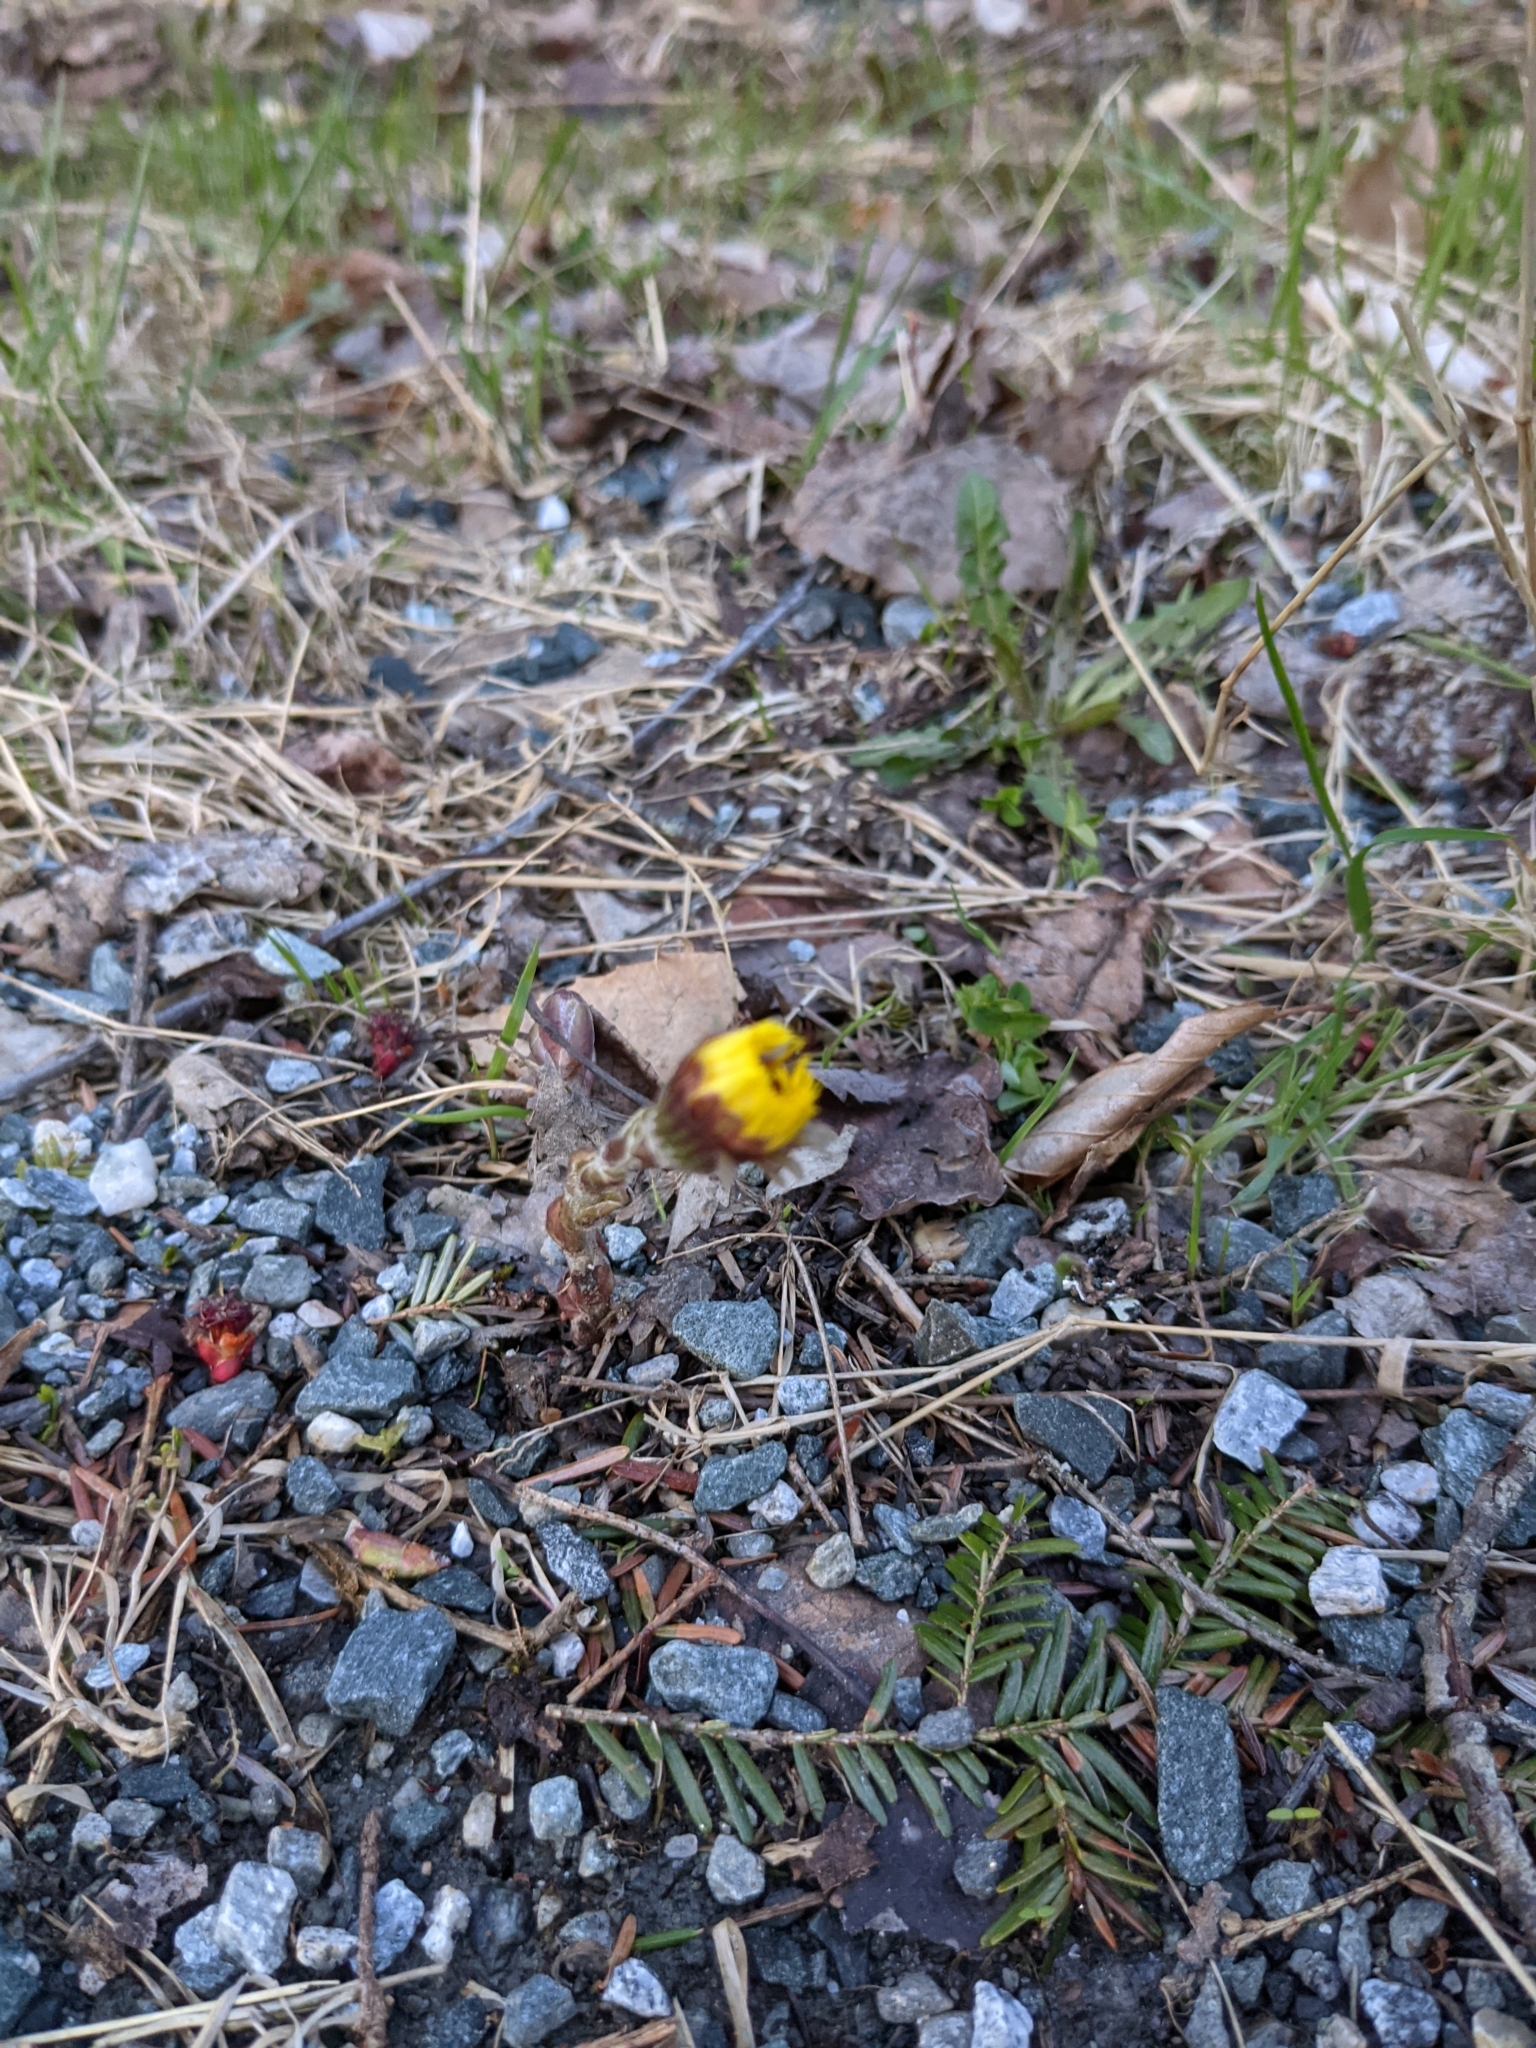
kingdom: Plantae
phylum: Tracheophyta
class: Magnoliopsida
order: Asterales
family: Asteraceae
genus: Tussilago
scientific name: Tussilago farfara
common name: Coltsfoot
